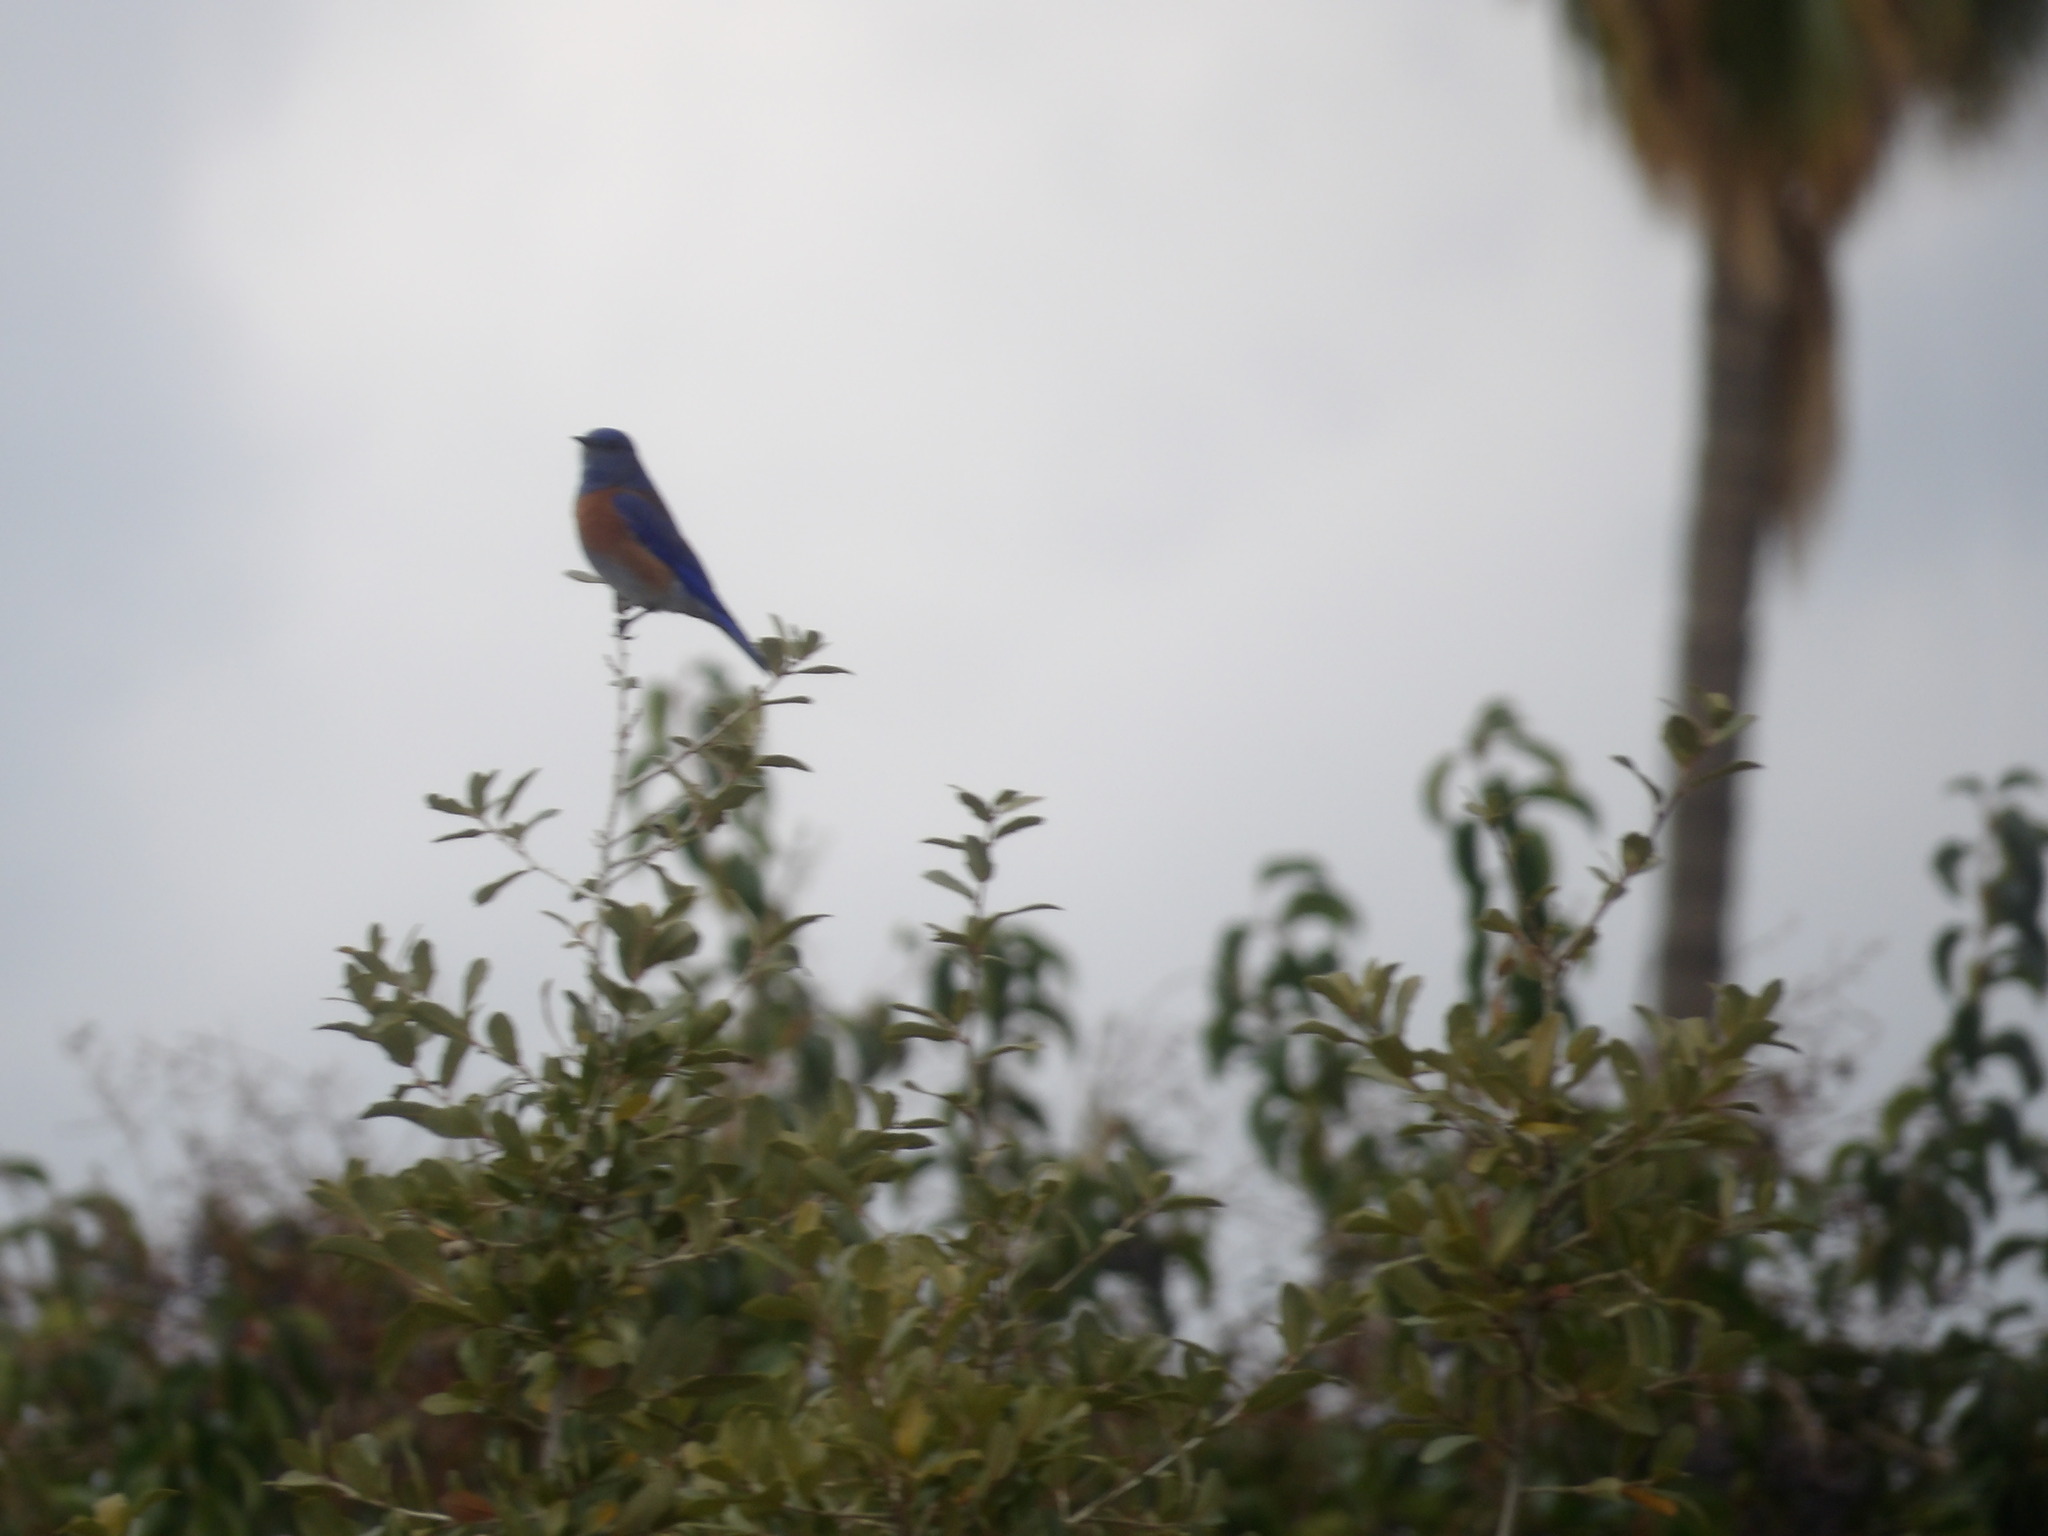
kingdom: Animalia
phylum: Chordata
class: Aves
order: Passeriformes
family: Turdidae
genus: Sialia
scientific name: Sialia mexicana
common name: Western bluebird
